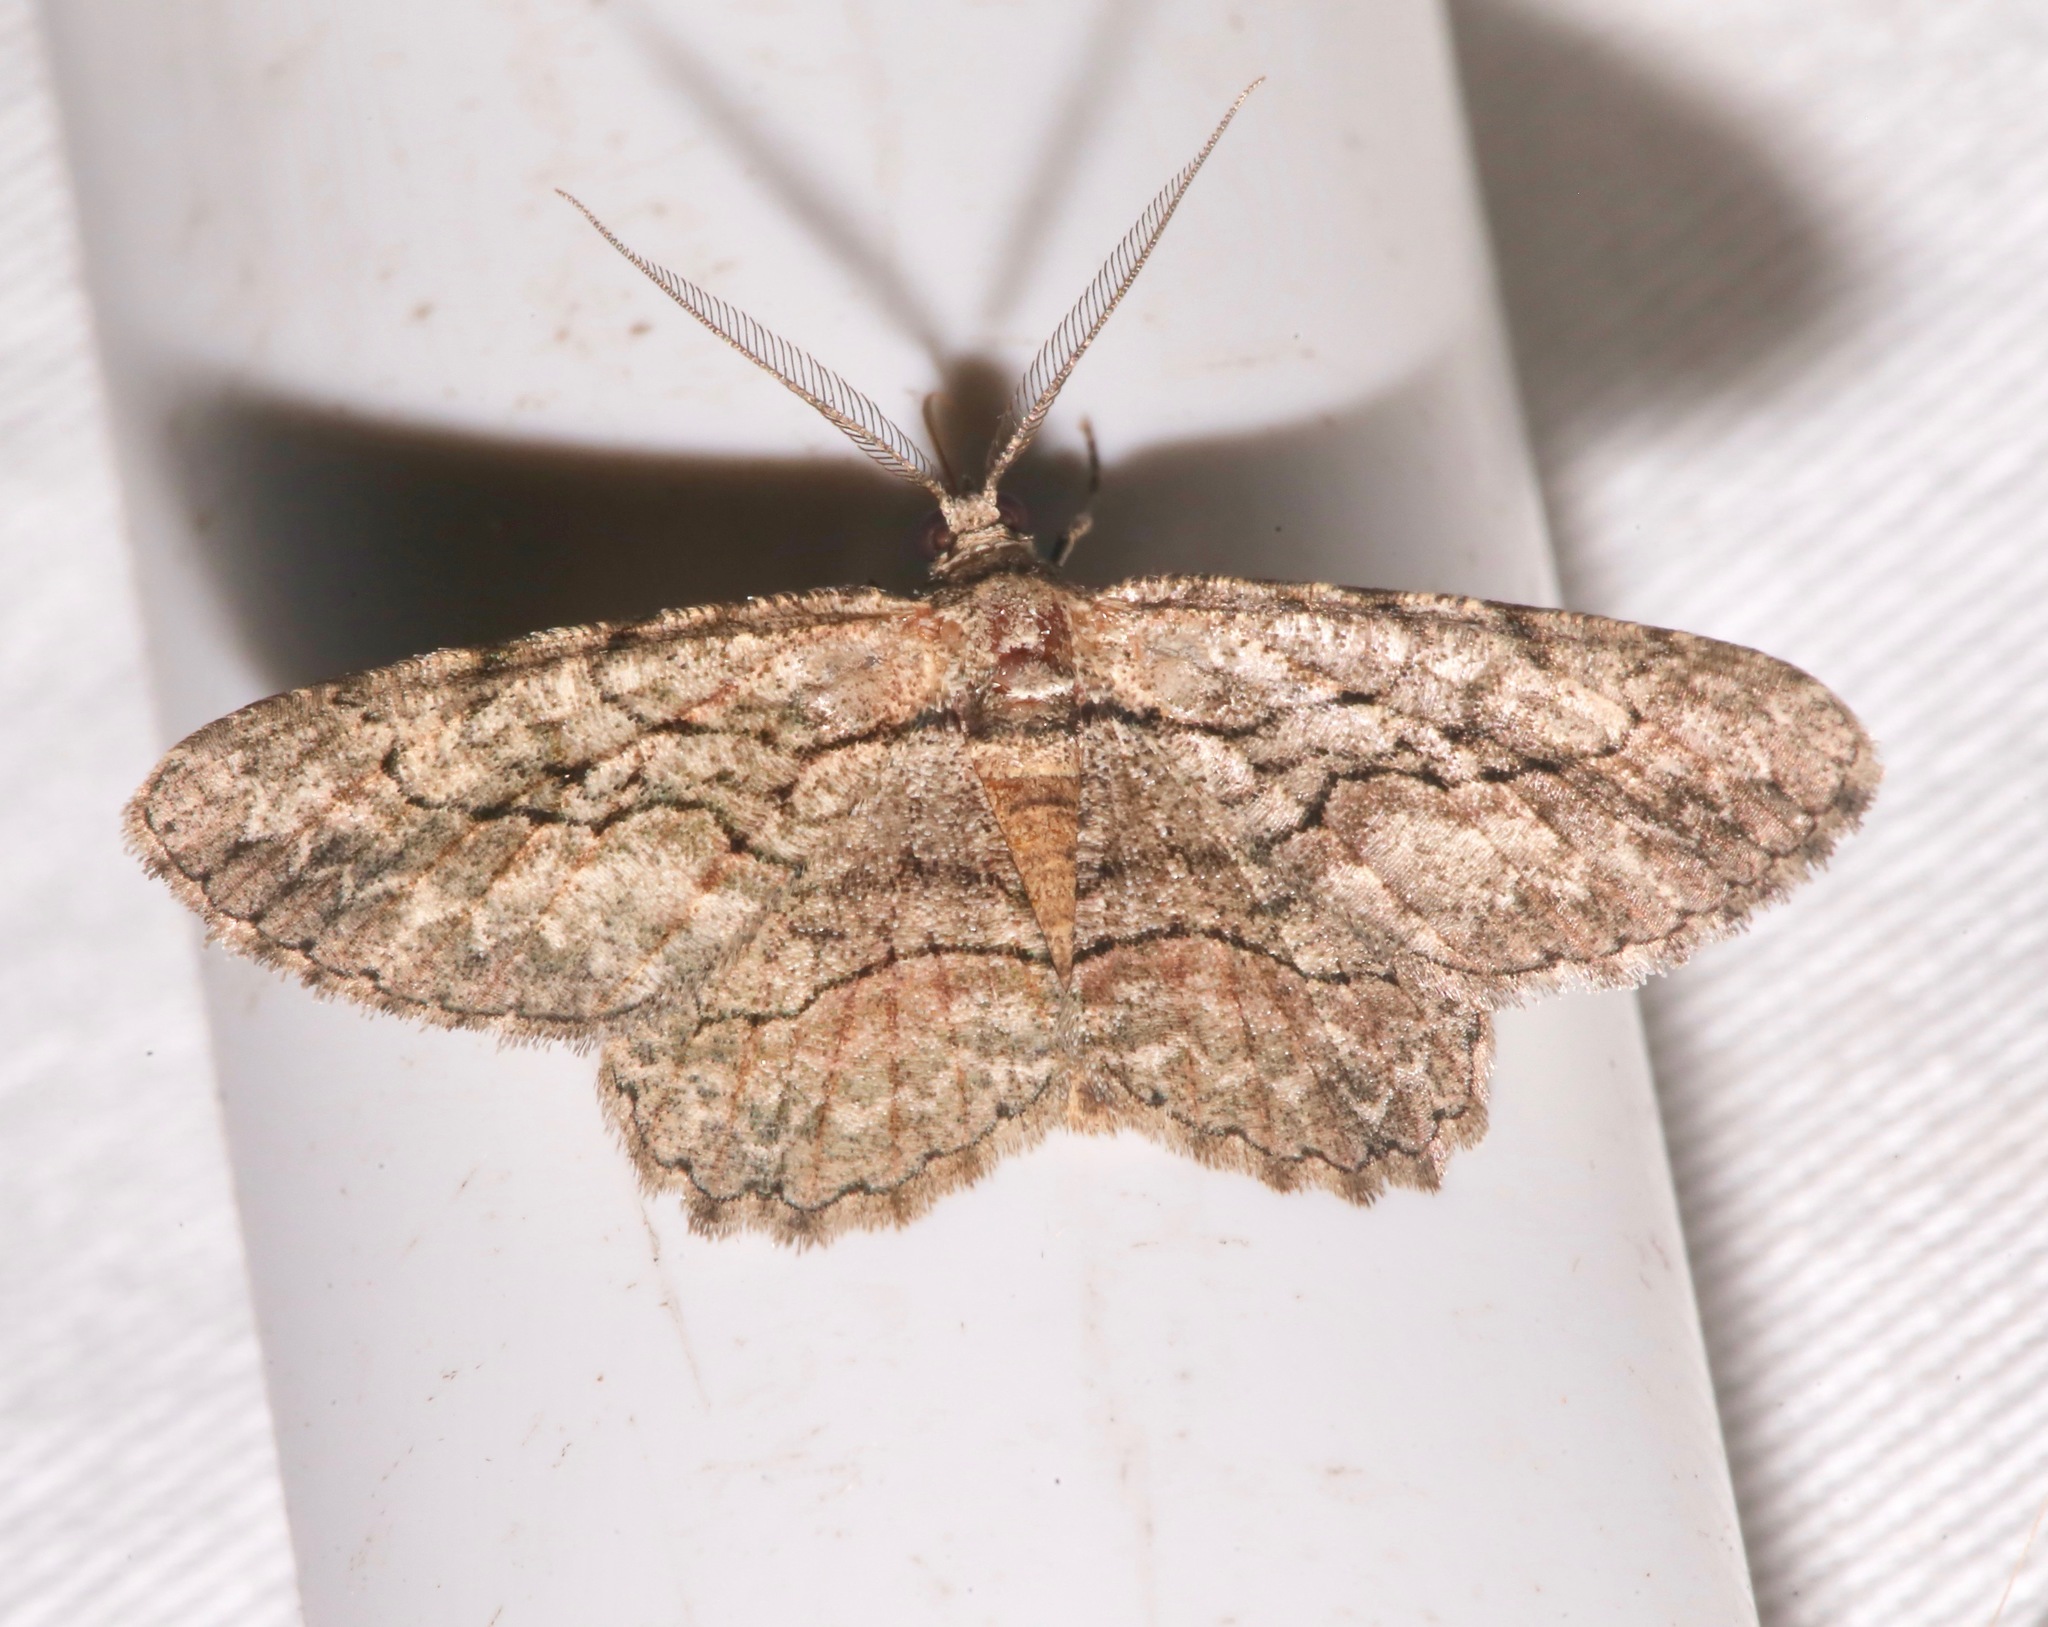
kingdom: Animalia
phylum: Arthropoda
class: Insecta
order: Lepidoptera
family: Geometridae
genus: Anavitrinella
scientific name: Anavitrinella pampinaria
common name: Common gray
